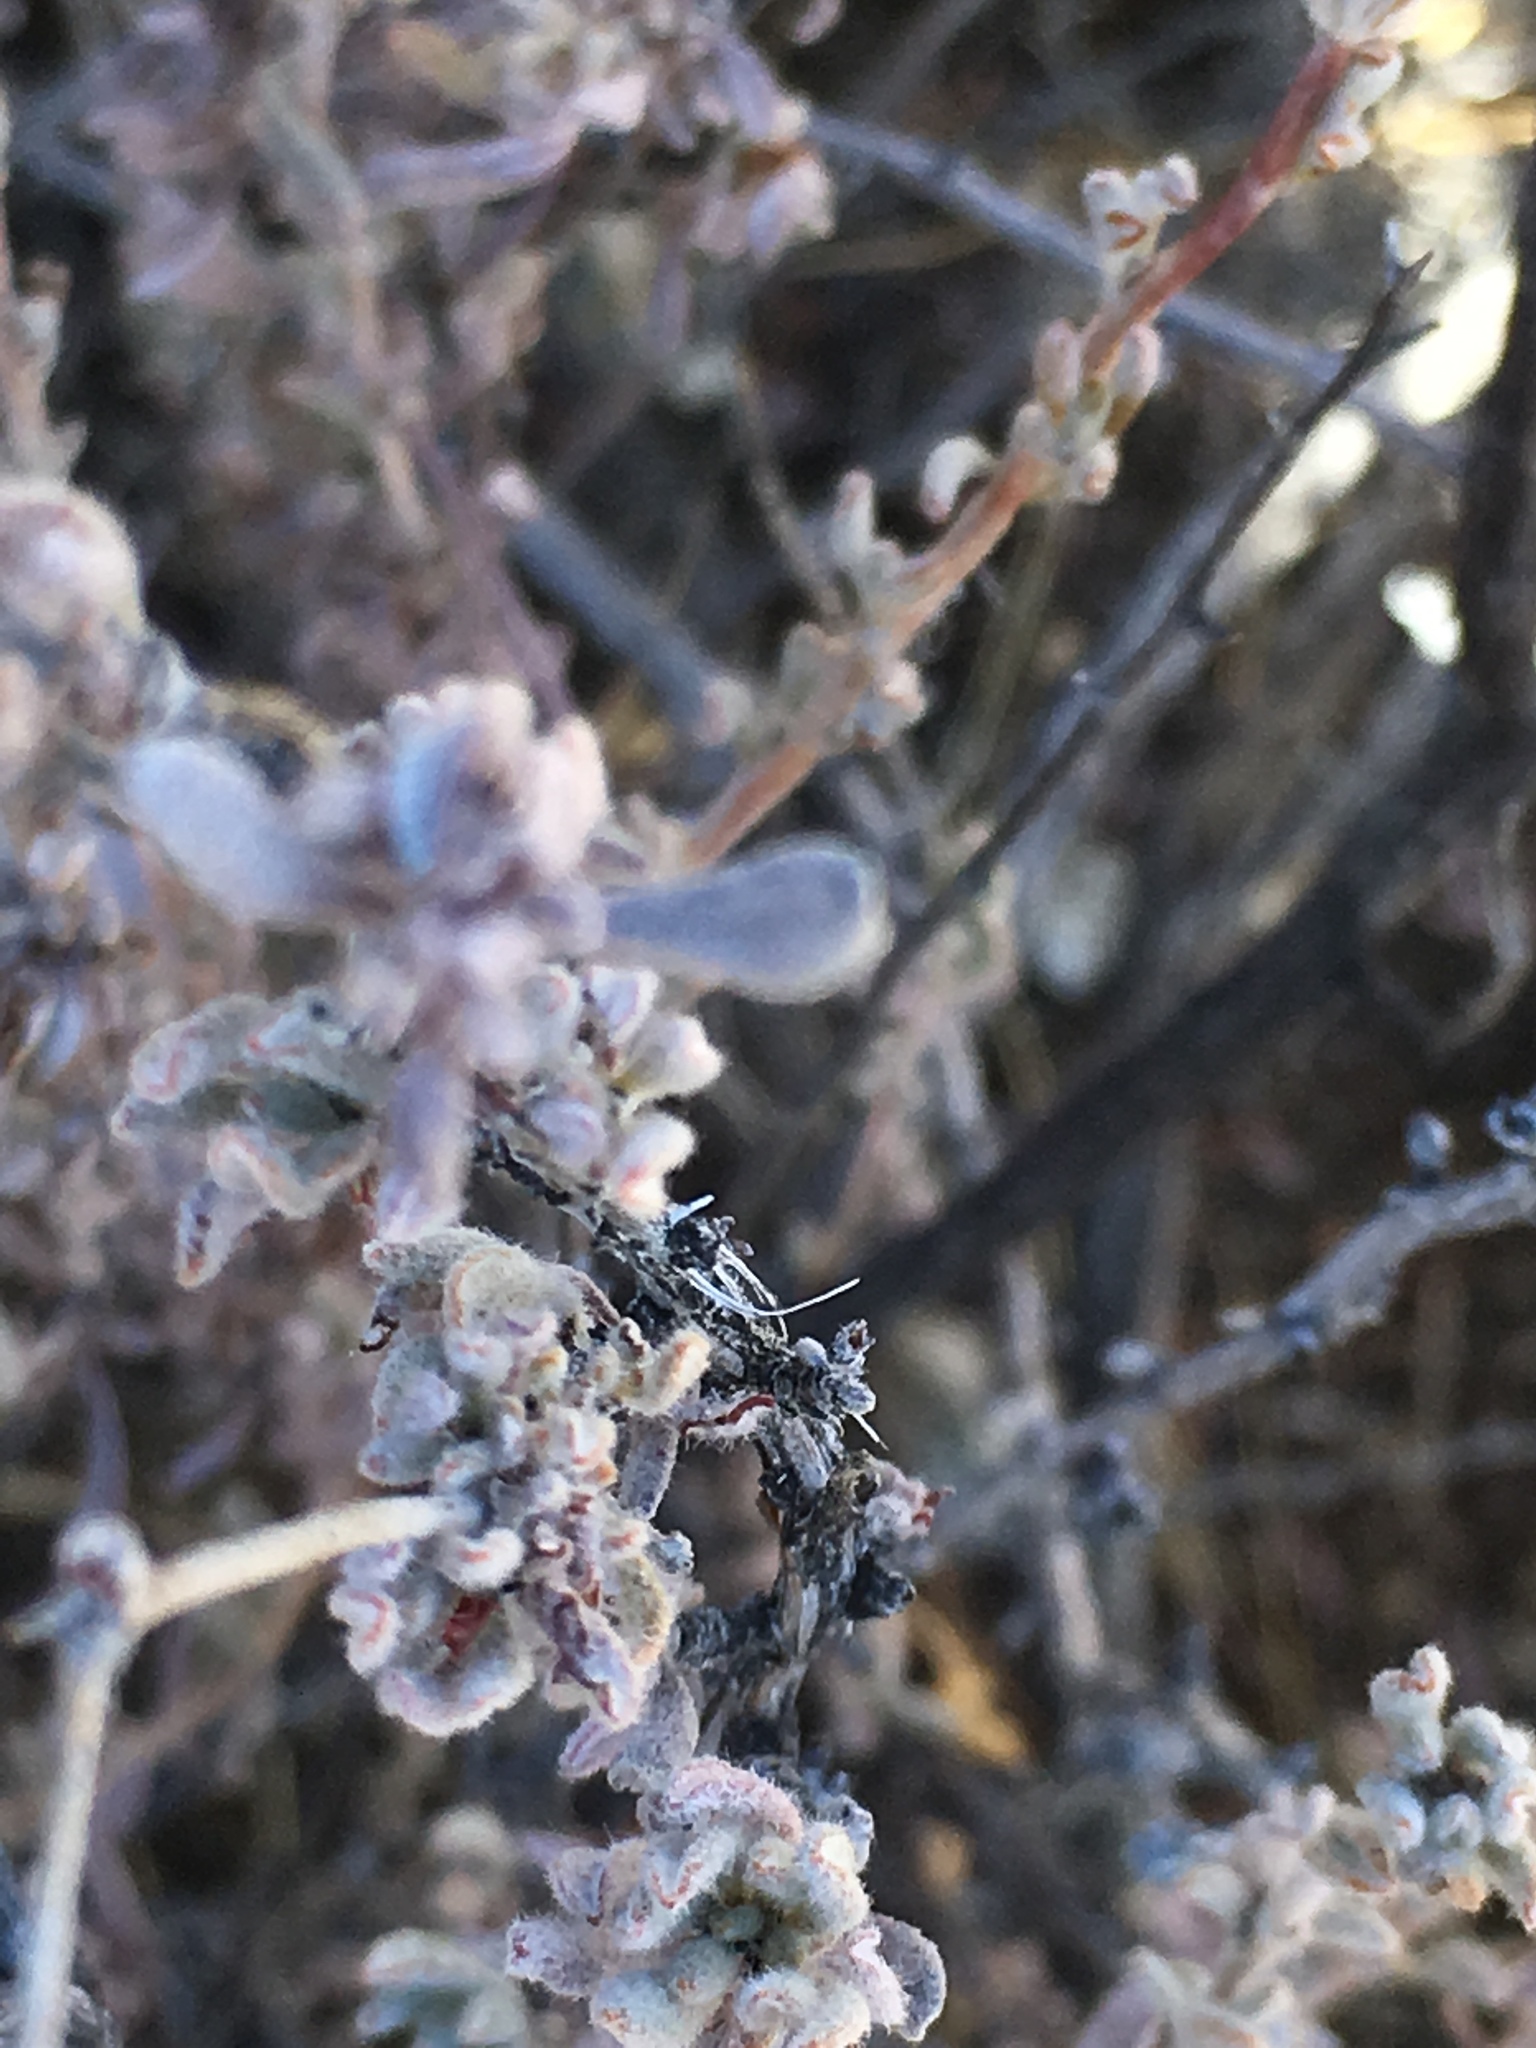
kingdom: Plantae
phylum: Tracheophyta
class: Magnoliopsida
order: Caryophyllales
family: Polygonaceae
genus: Eriogonum
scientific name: Eriogonum fasciculatum
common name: California wild buckwheat
